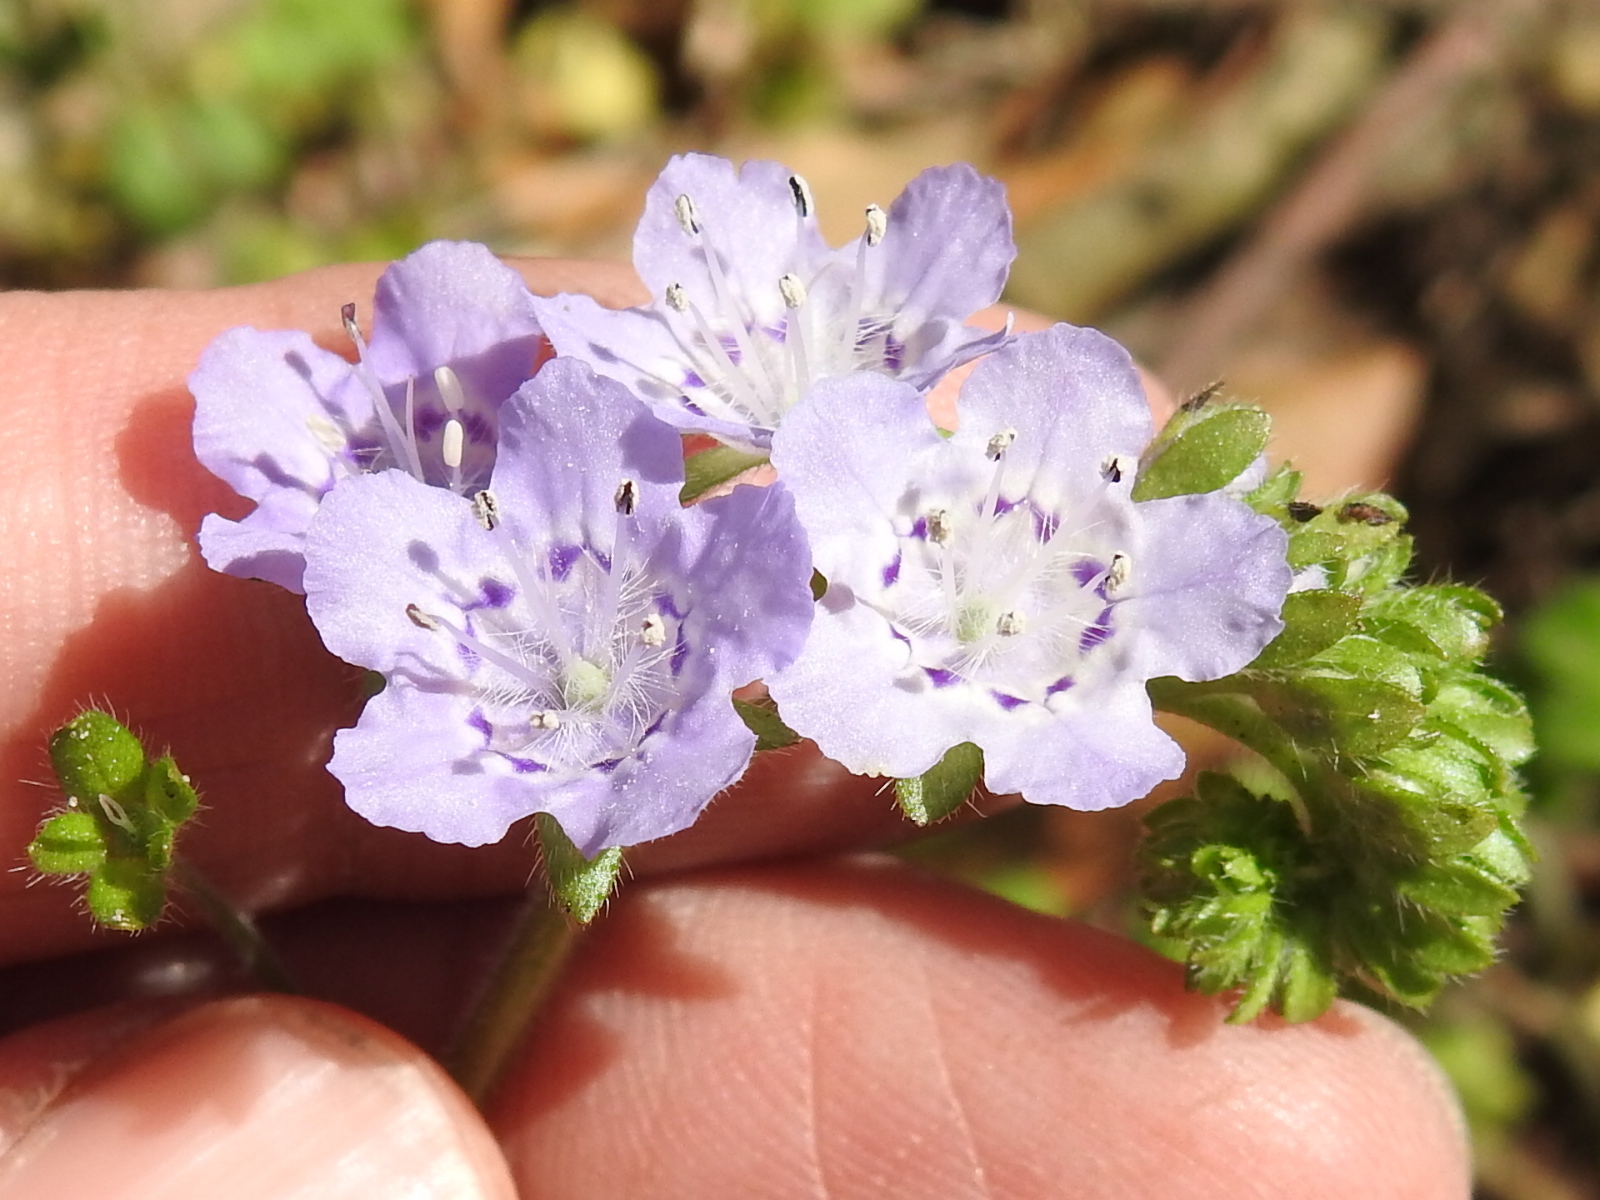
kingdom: Plantae
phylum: Tracheophyta
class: Magnoliopsida
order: Boraginales
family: Hydrophyllaceae
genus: Phacelia
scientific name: Phacelia hirsuta
